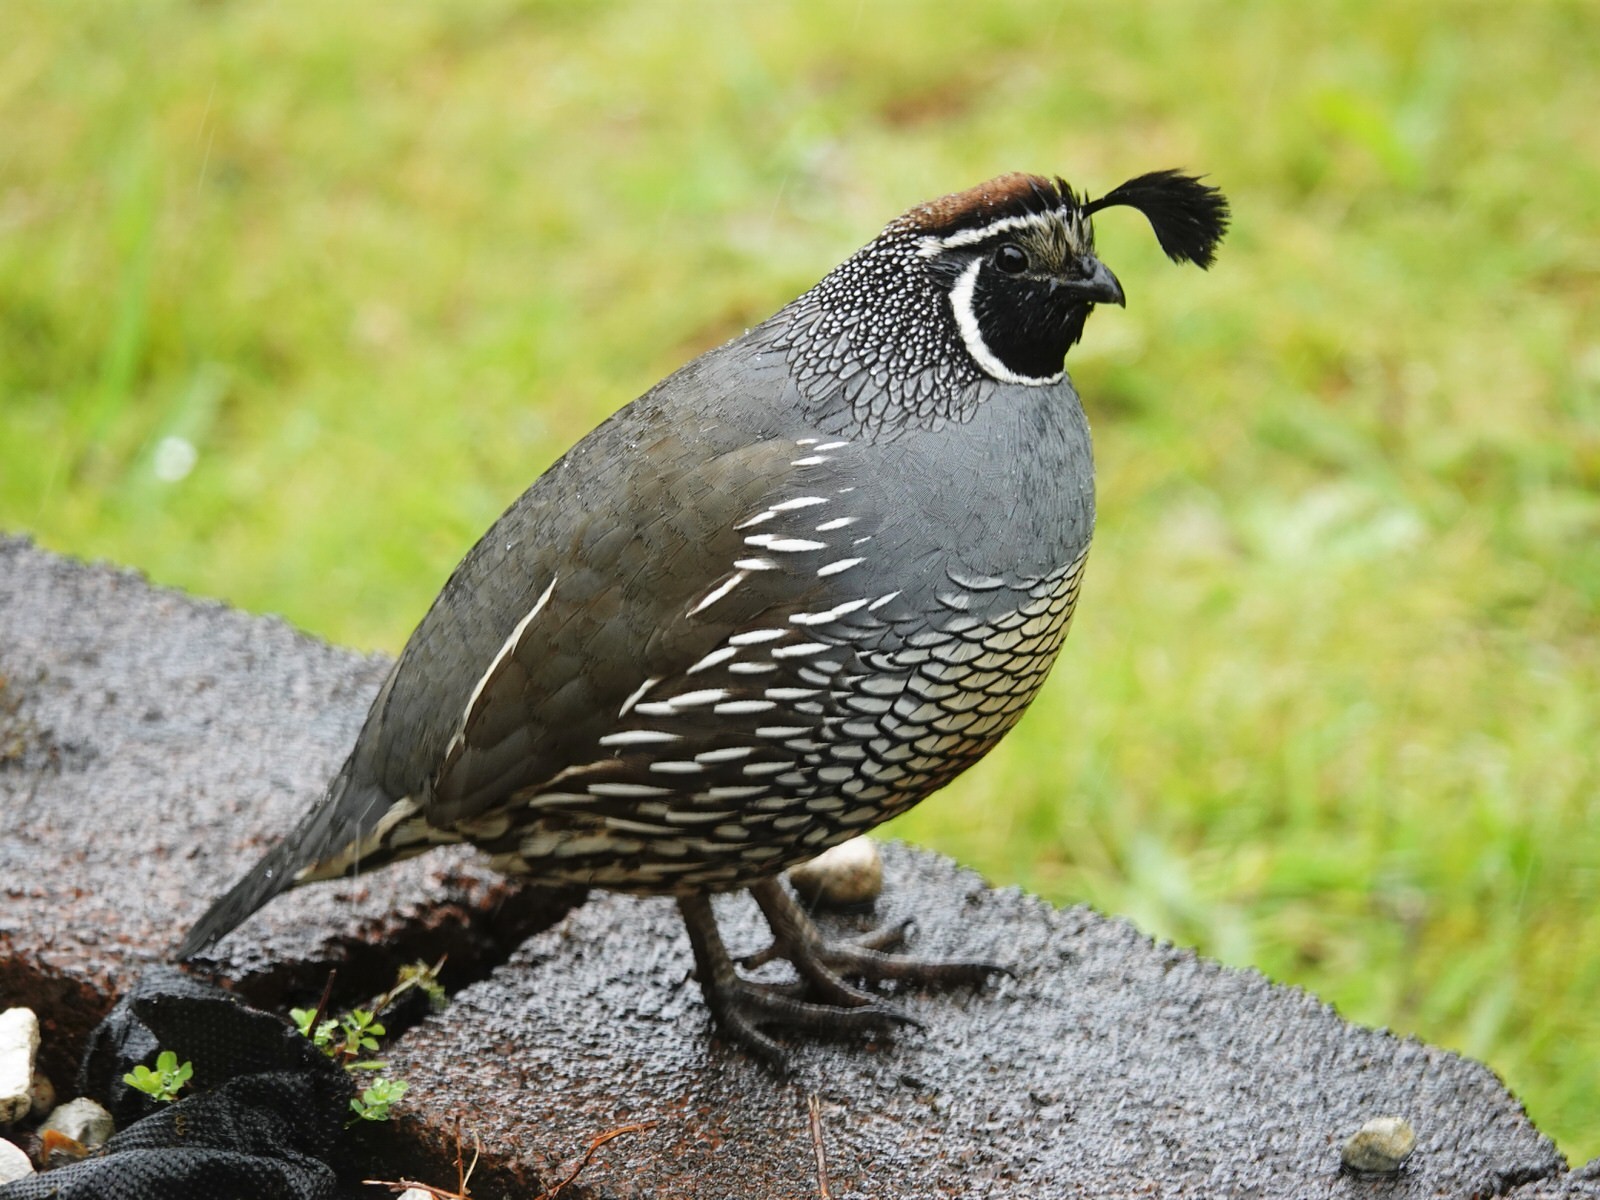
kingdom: Animalia
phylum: Chordata
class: Aves
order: Galliformes
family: Odontophoridae
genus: Callipepla
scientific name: Callipepla californica
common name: California quail
